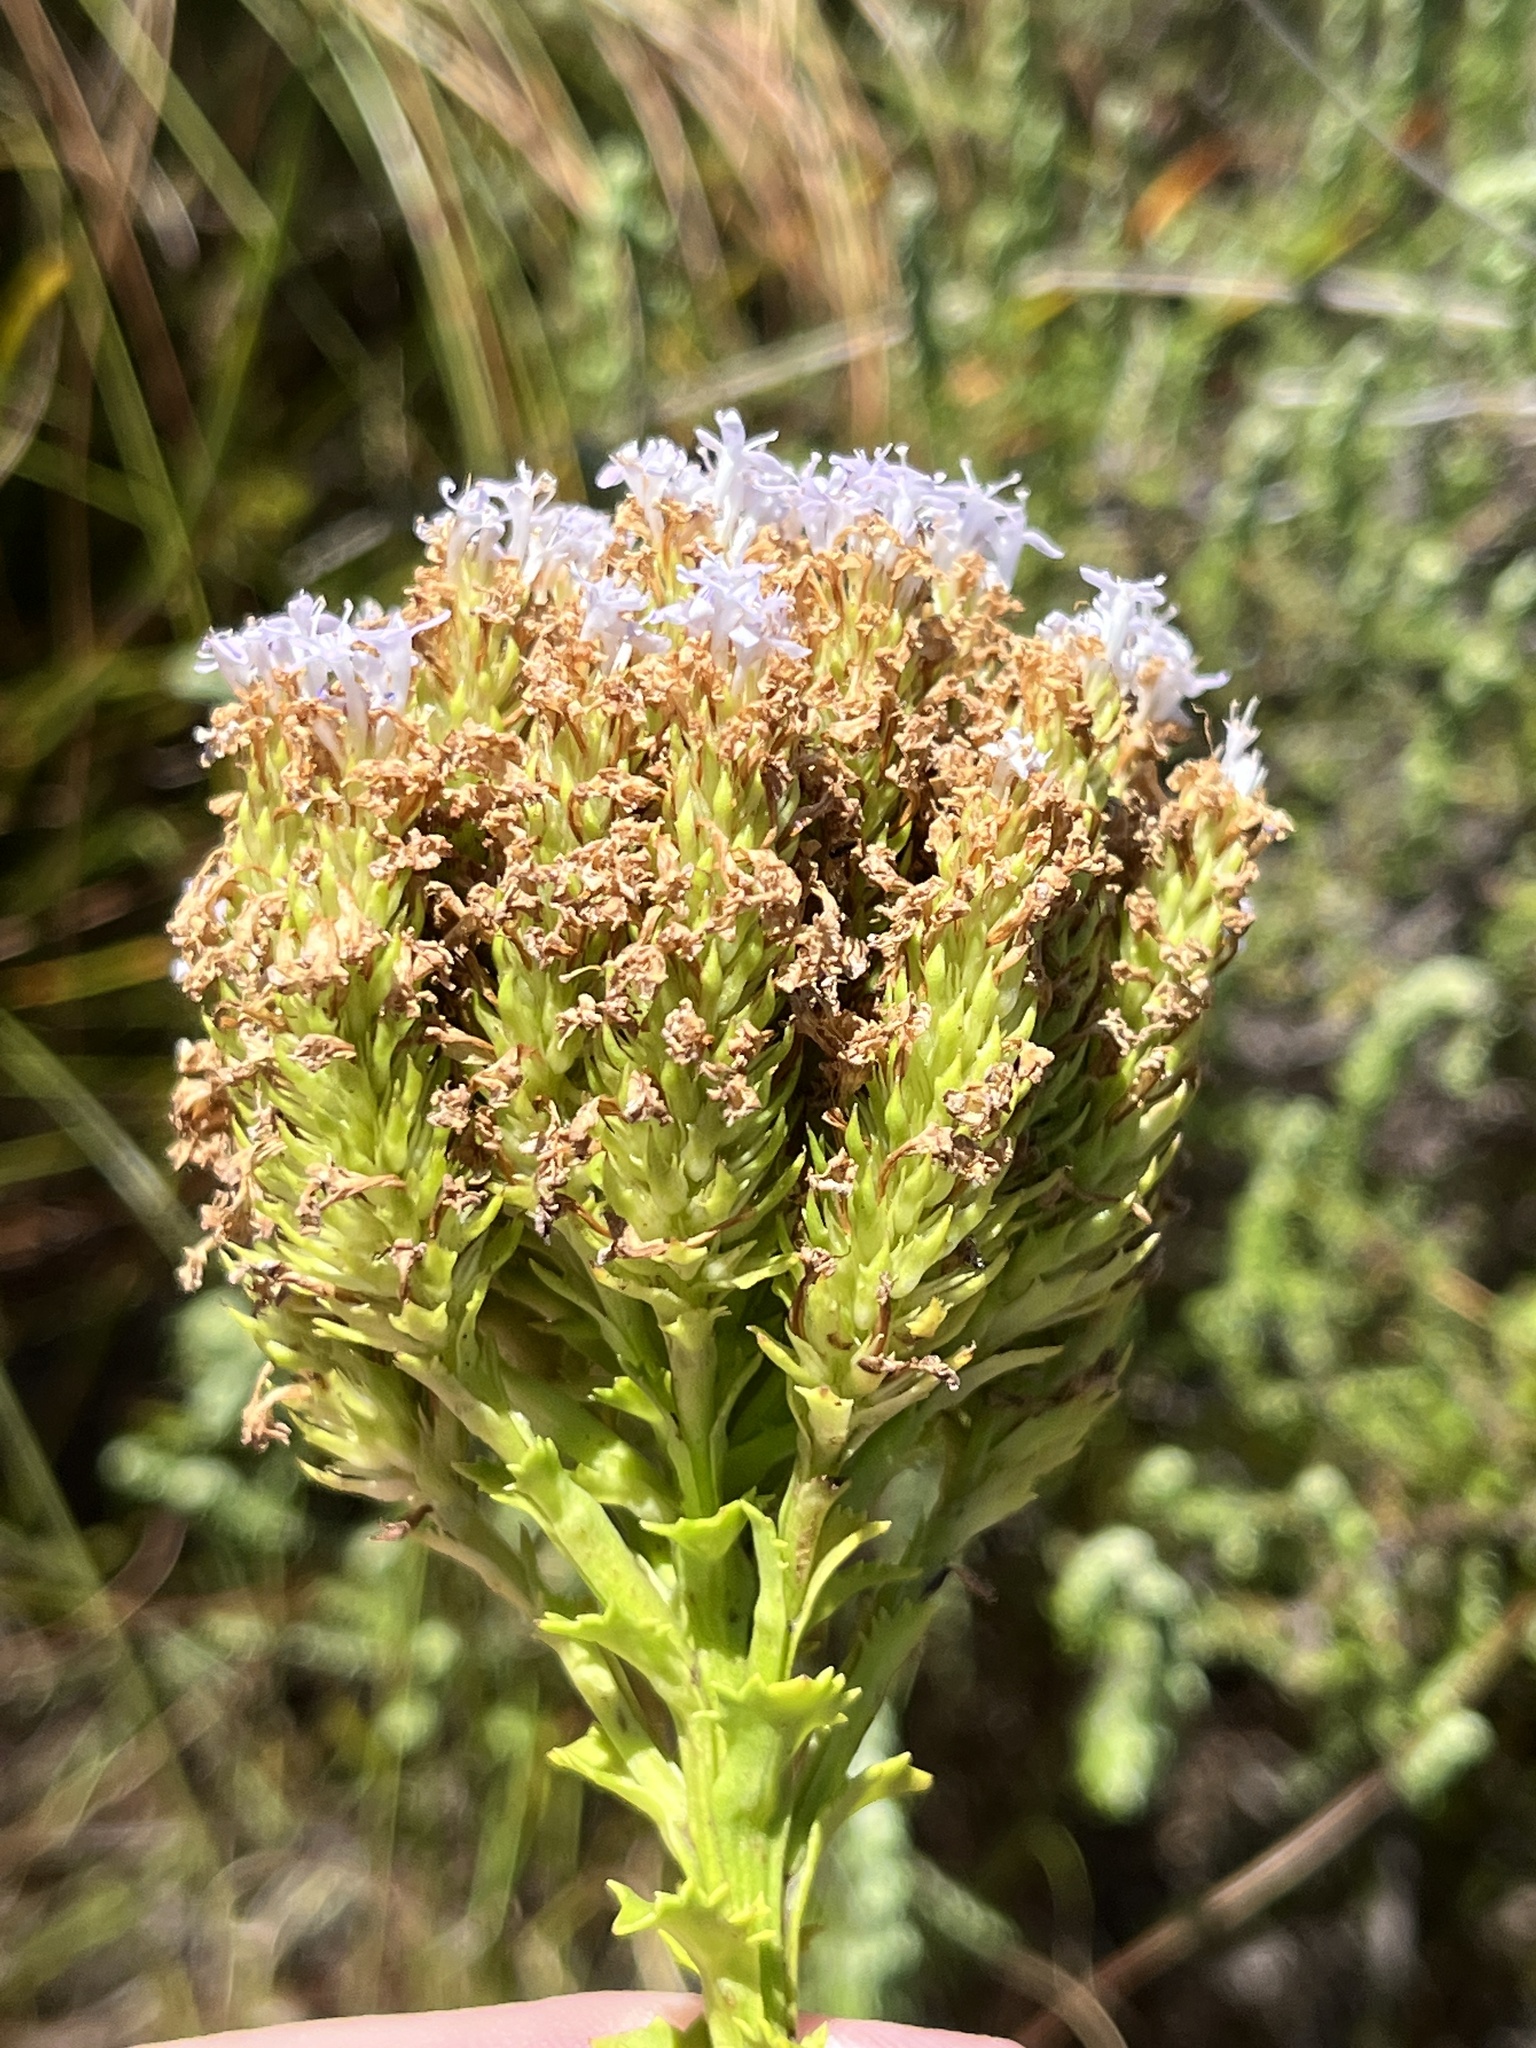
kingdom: Plantae
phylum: Tracheophyta
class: Magnoliopsida
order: Lamiales
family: Scrophulariaceae
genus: Pseudoselago
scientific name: Pseudoselago serrata
